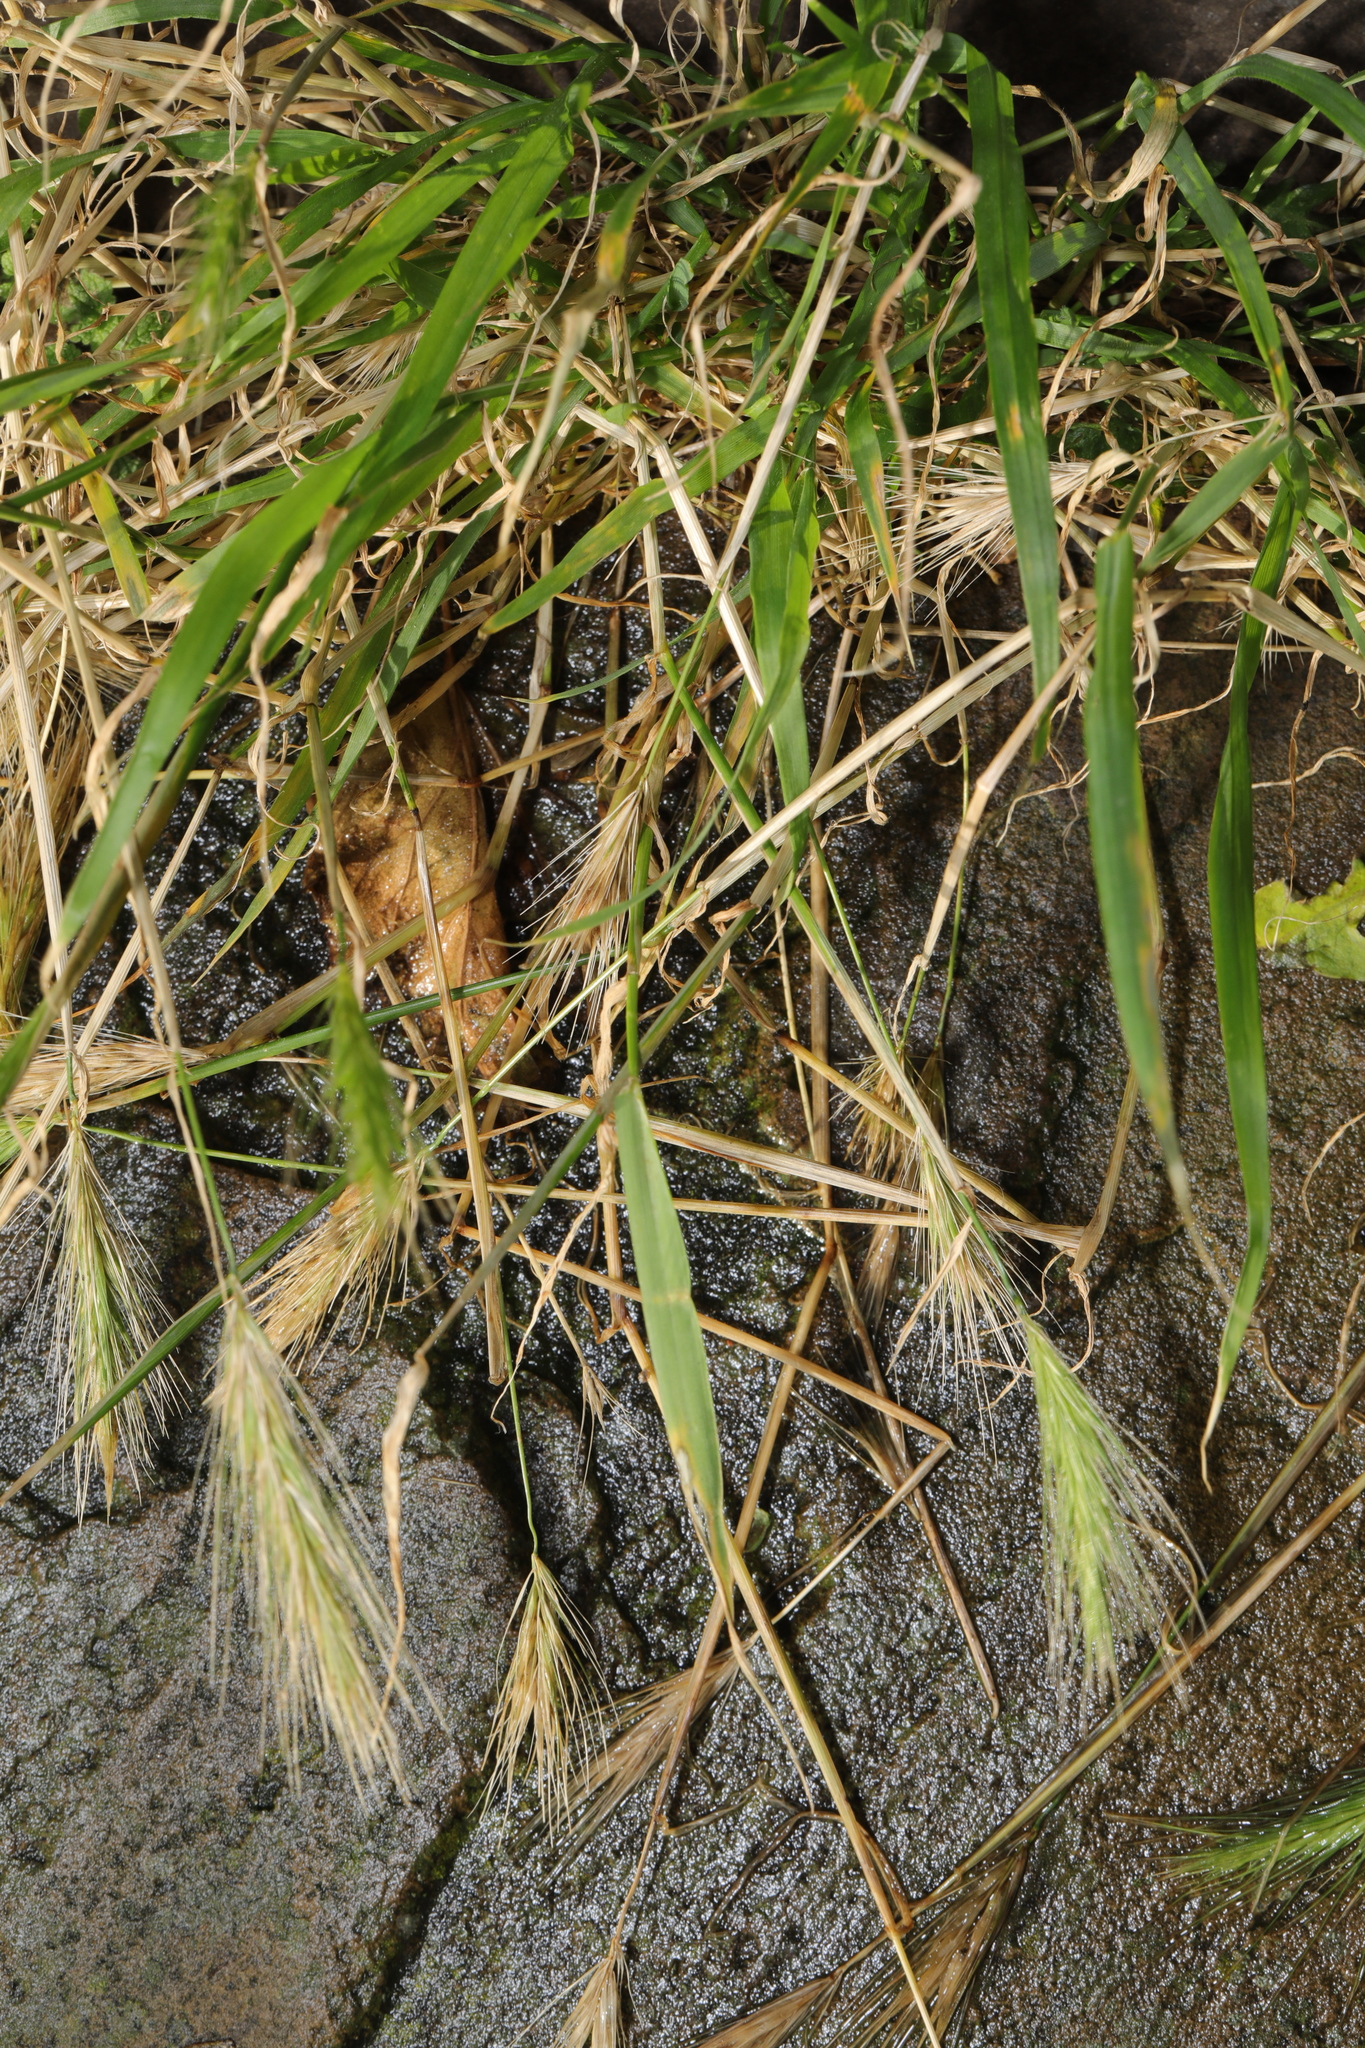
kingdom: Plantae
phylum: Tracheophyta
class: Liliopsida
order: Poales
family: Poaceae
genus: Hordeum
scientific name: Hordeum murinum
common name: Wall barley
